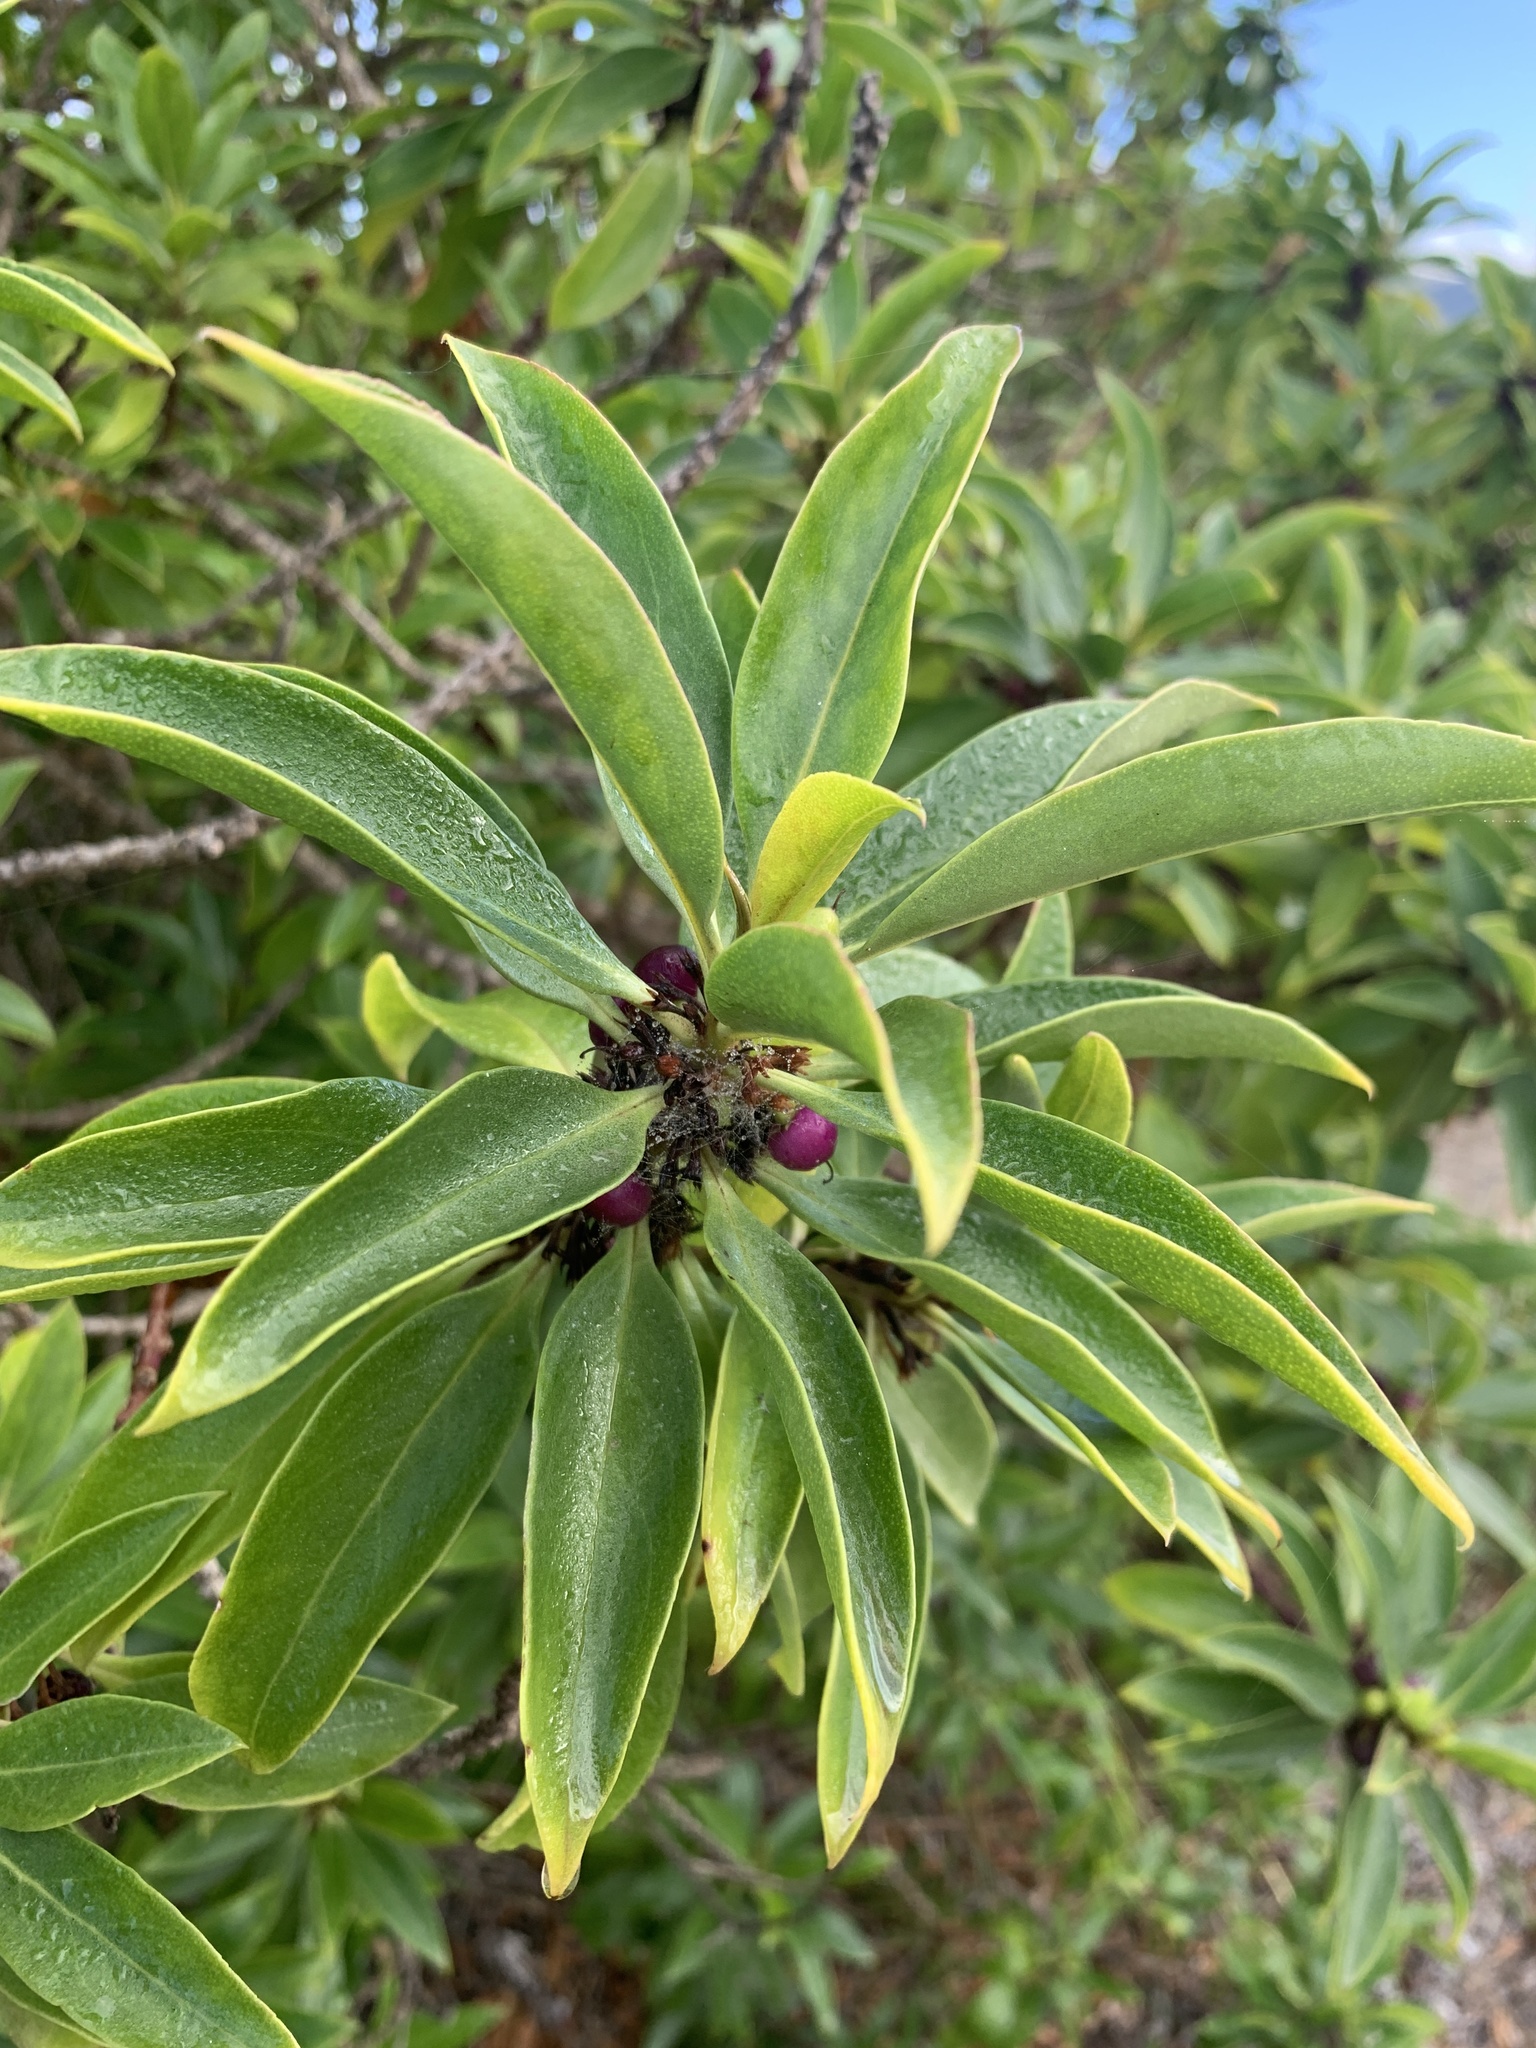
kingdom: Plantae
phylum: Tracheophyta
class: Magnoliopsida
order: Lamiales
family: Scrophulariaceae
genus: Myoporum
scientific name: Myoporum laetum
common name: Ngaio tree
